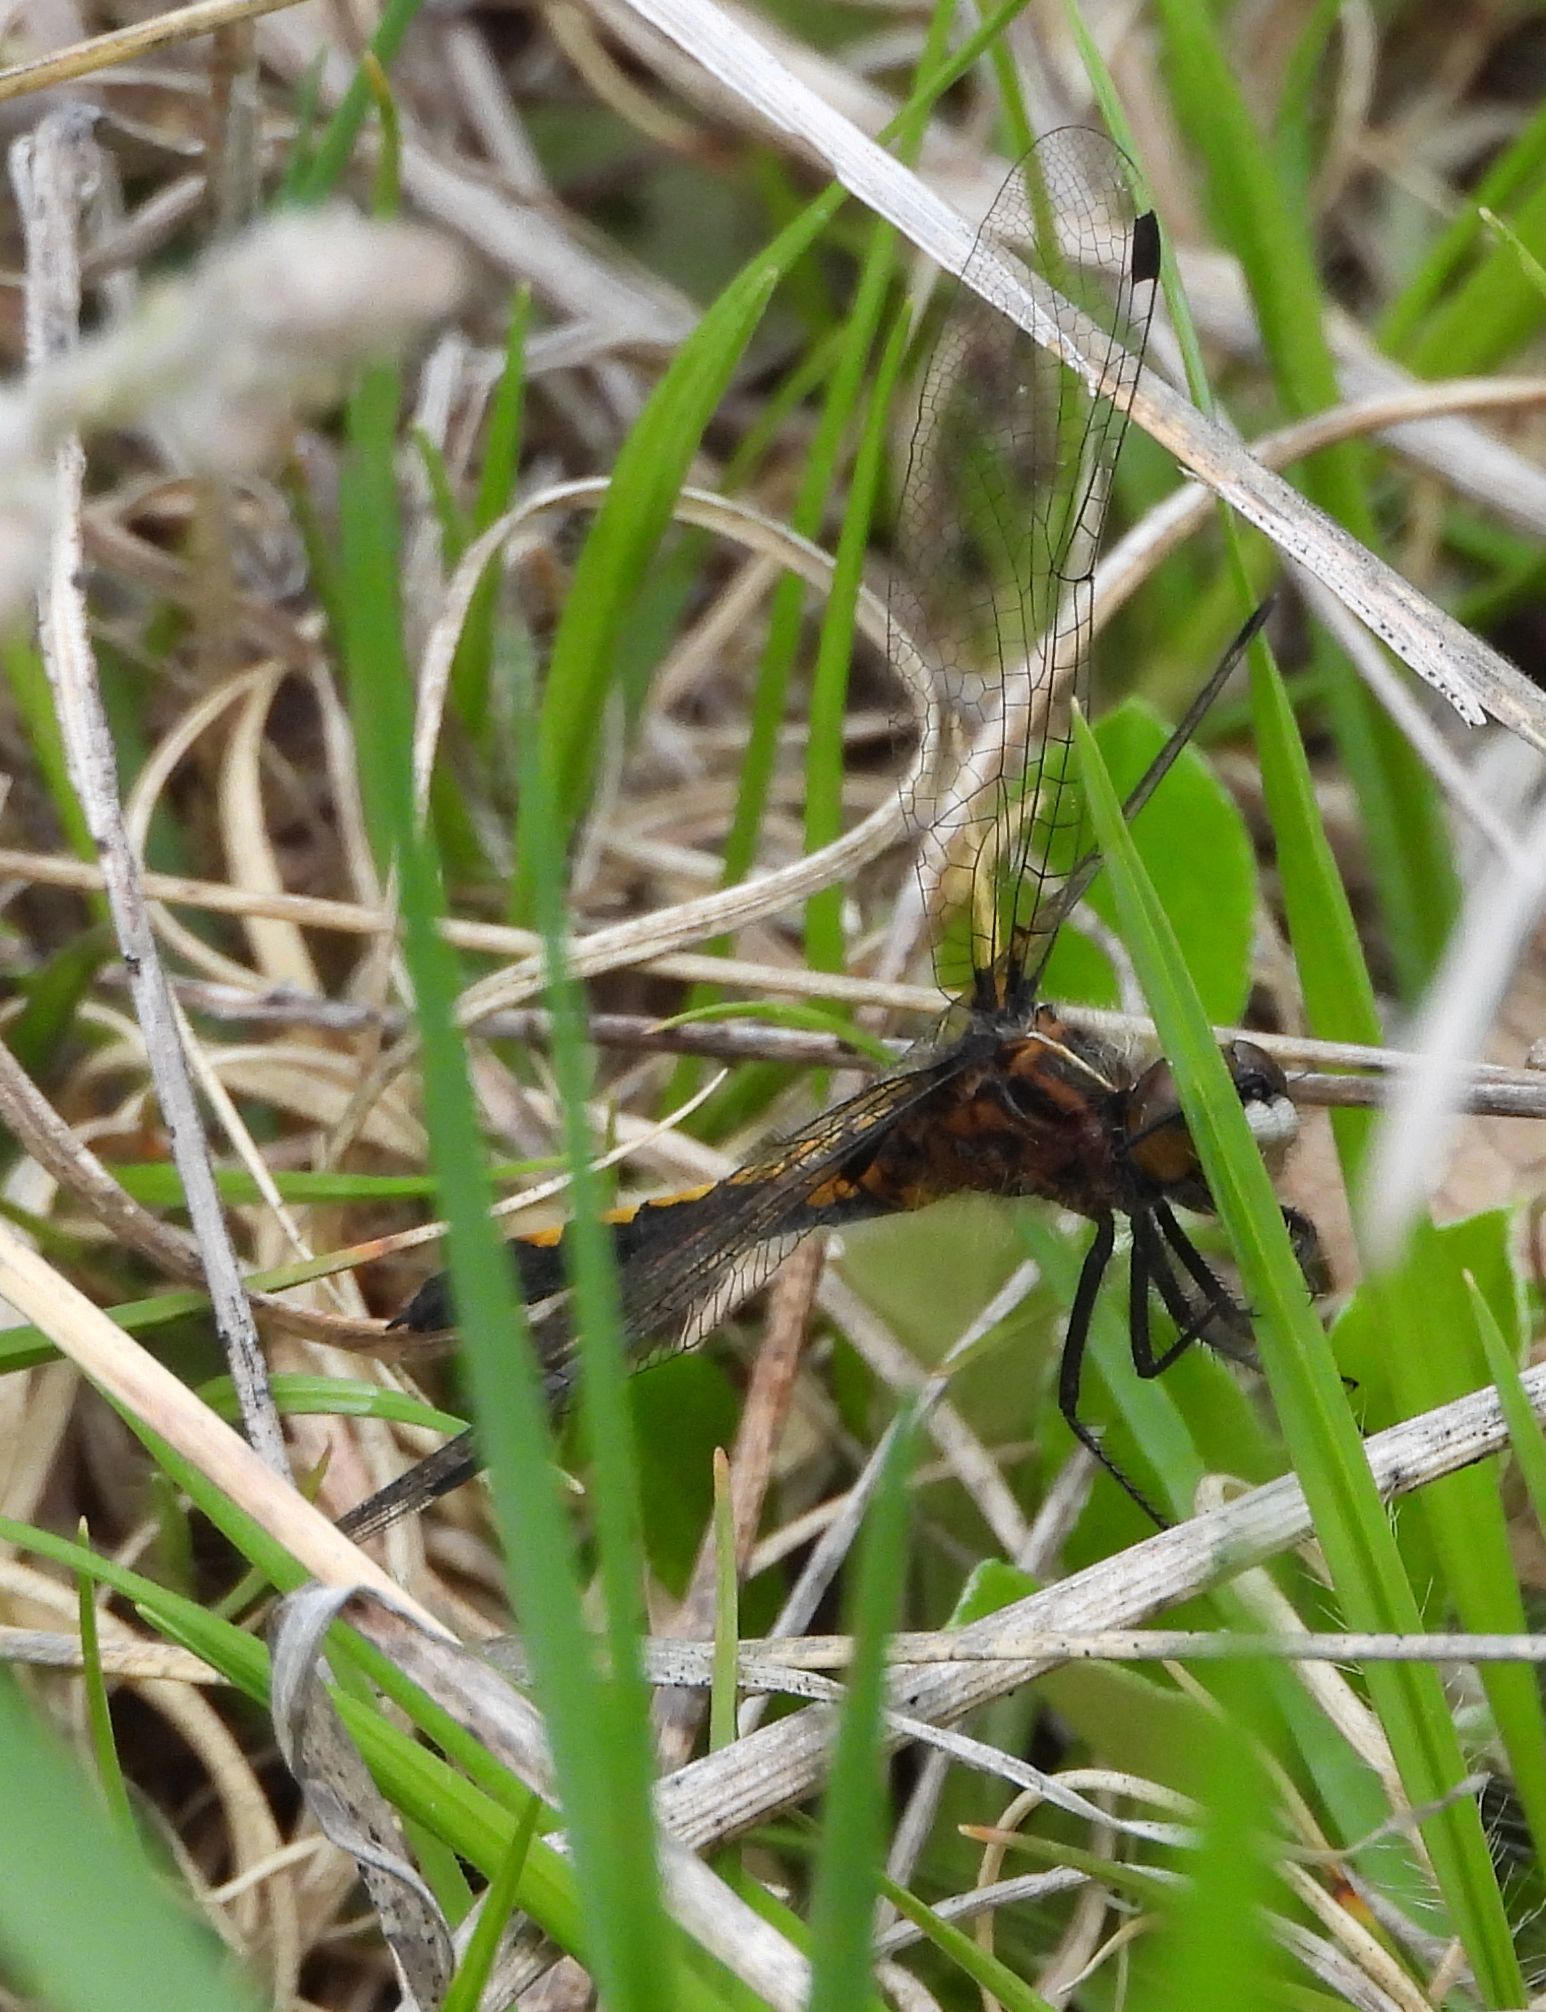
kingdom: Animalia
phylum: Arthropoda
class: Insecta
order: Odonata
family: Libellulidae
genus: Leucorrhinia
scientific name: Leucorrhinia intacta
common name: Dot-tailed whiteface
